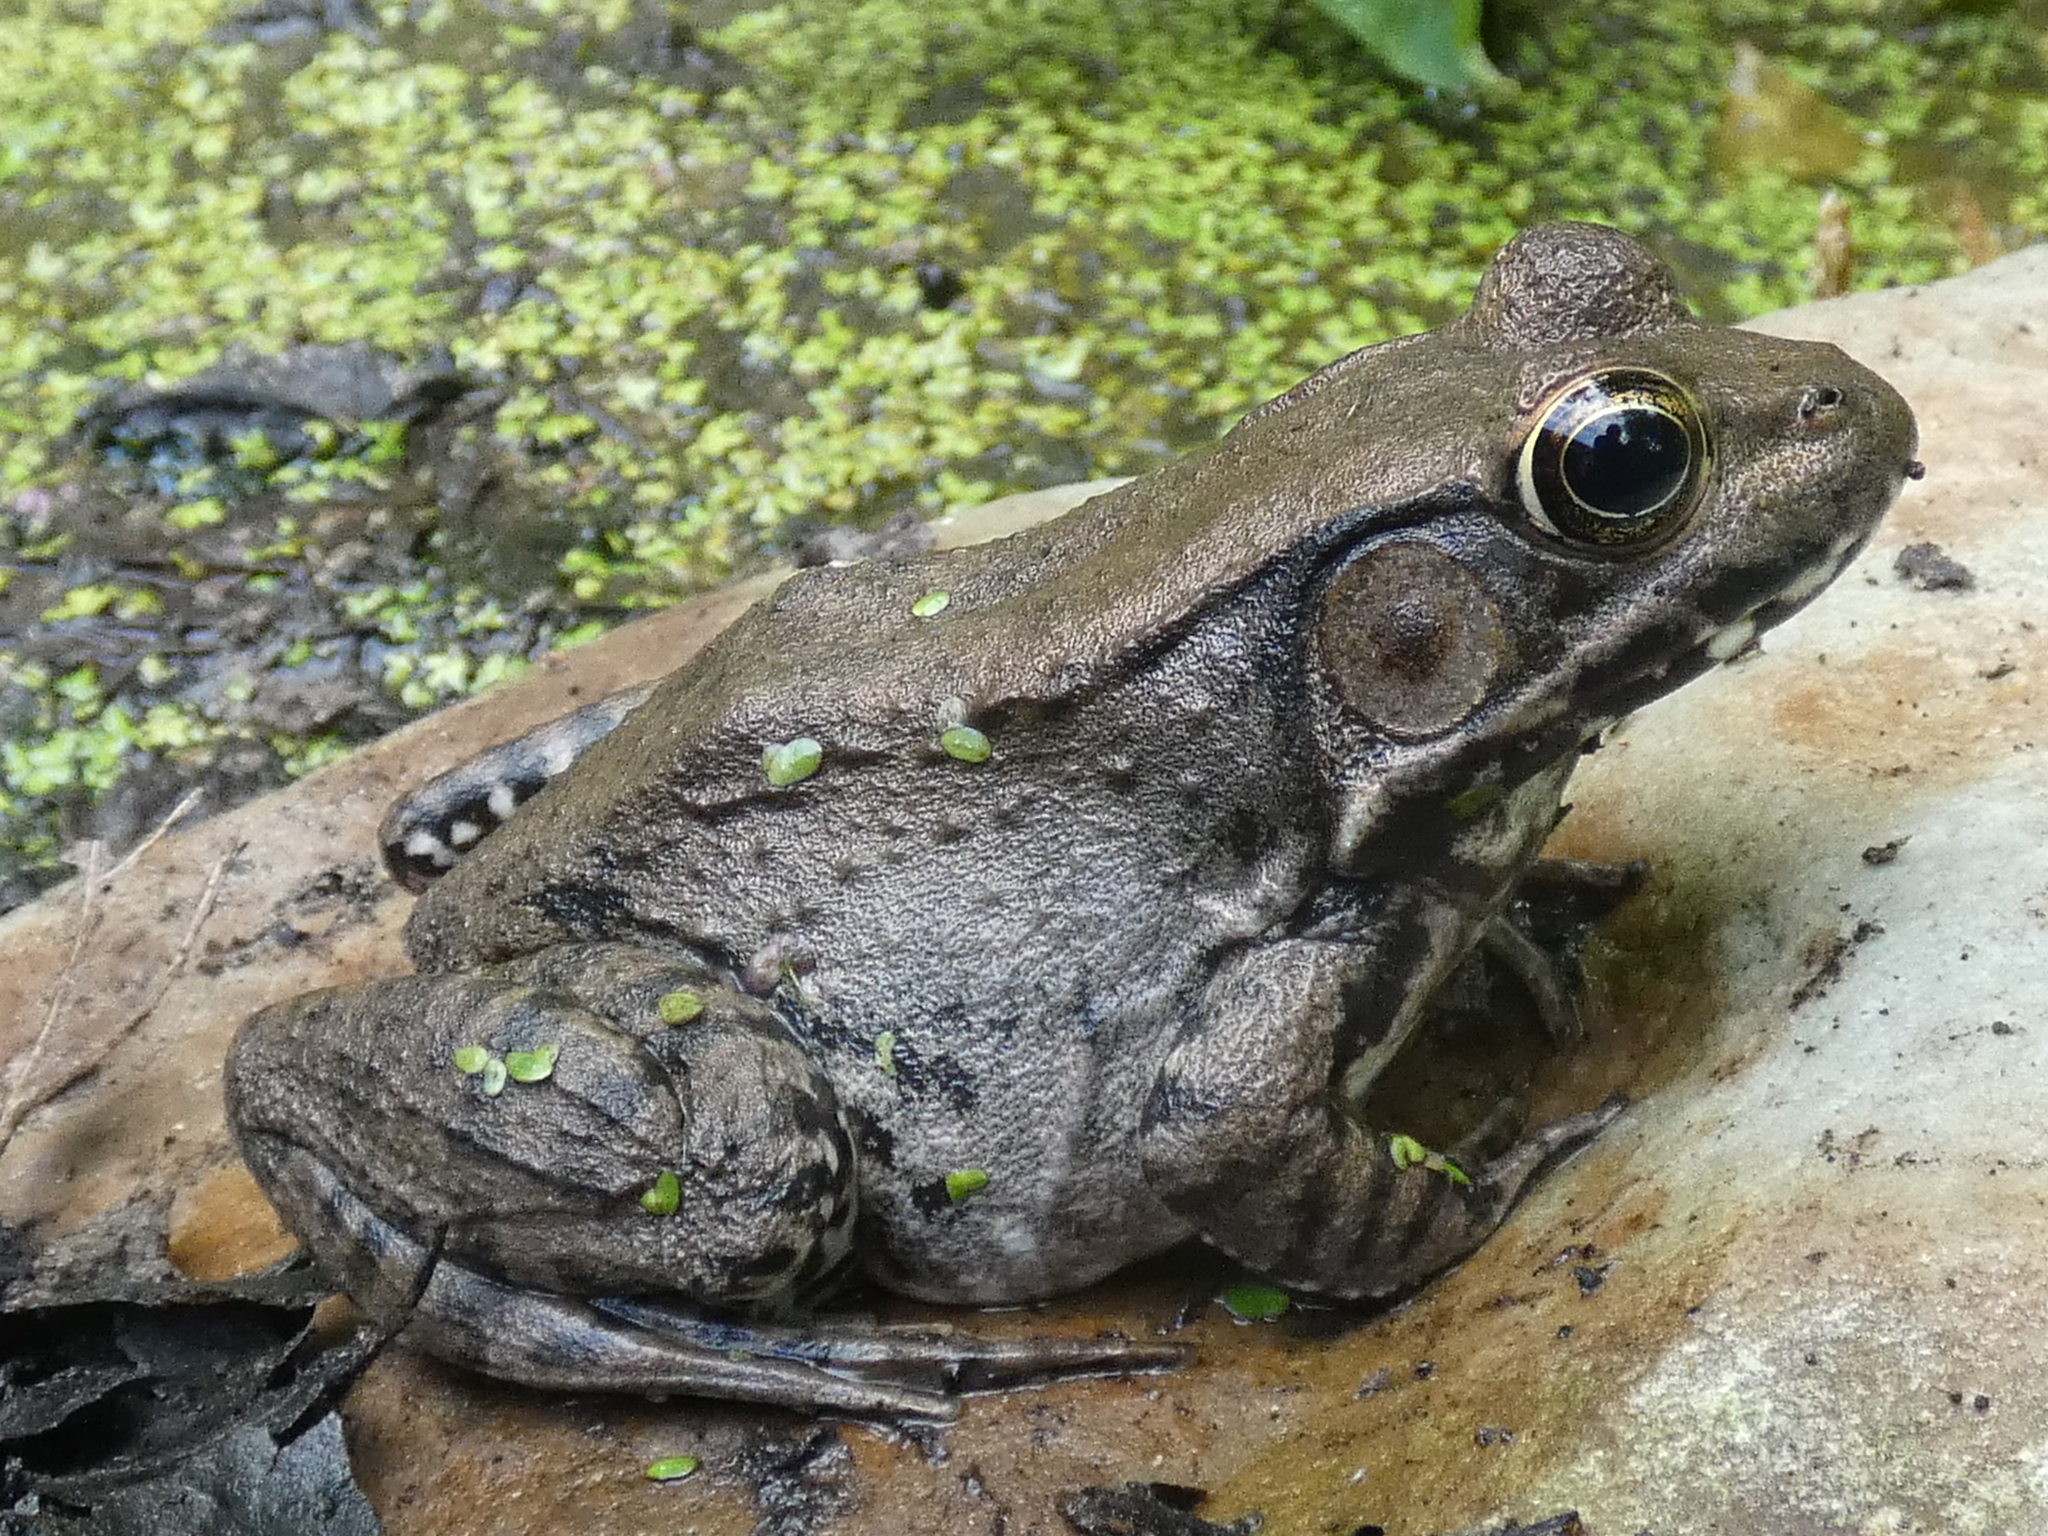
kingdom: Animalia
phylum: Chordata
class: Amphibia
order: Anura
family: Ranidae
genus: Lithobates
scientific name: Lithobates clamitans
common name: Green frog
